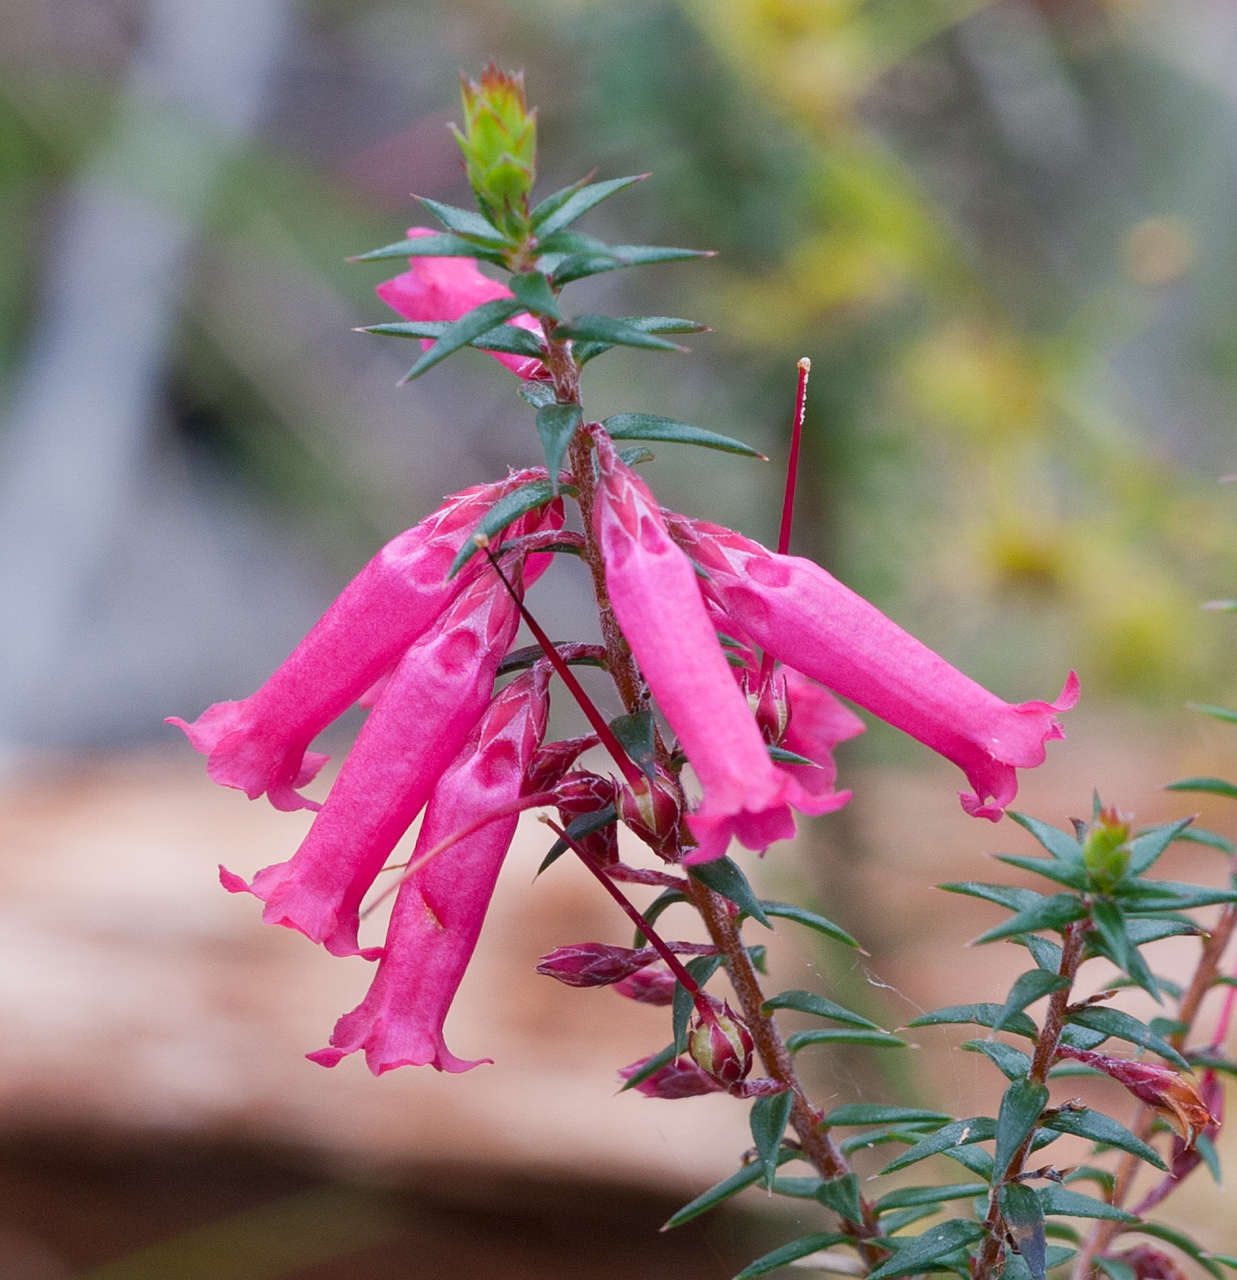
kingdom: Plantae
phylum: Tracheophyta
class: Magnoliopsida
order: Ericales
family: Ericaceae
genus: Epacris
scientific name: Epacris impressa
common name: Common-heath
